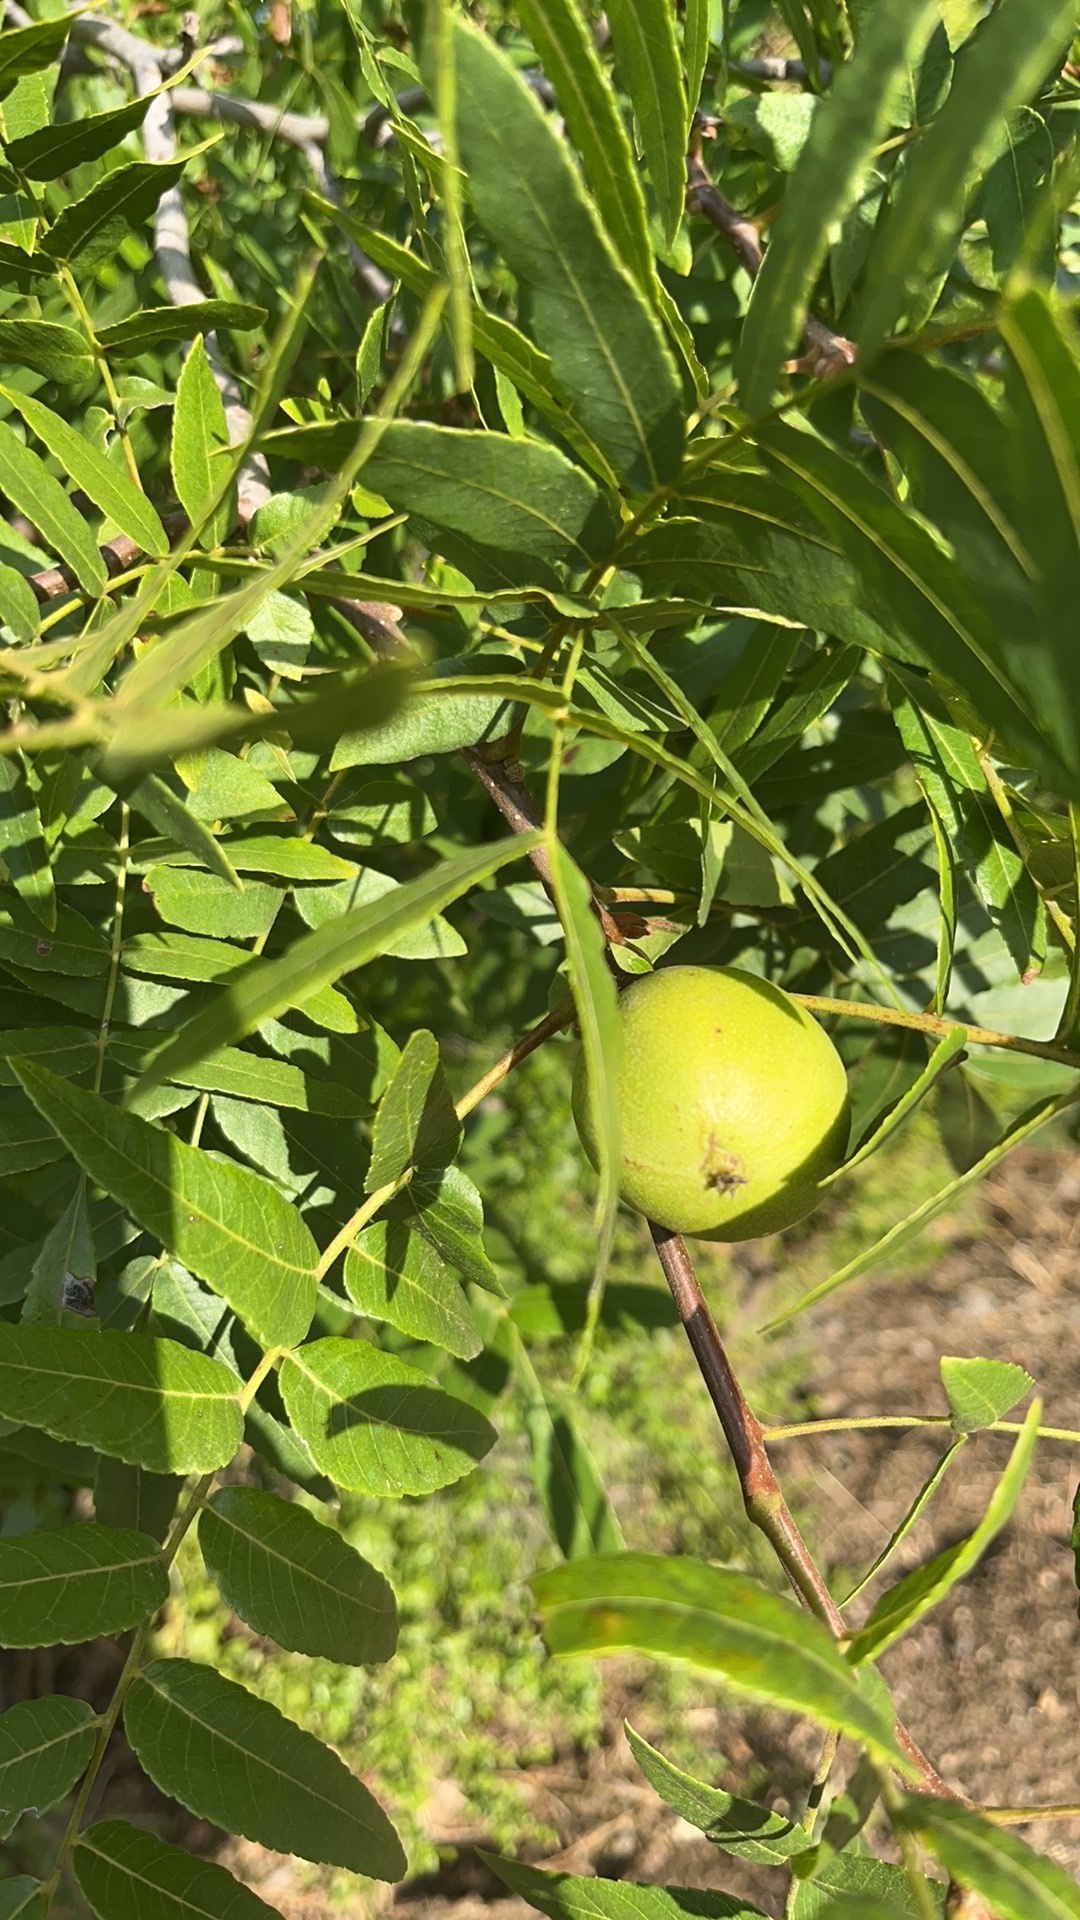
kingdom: Plantae
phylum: Tracheophyta
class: Magnoliopsida
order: Fagales
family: Juglandaceae
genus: Juglans
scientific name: Juglans californica
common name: Southern california black walnut
